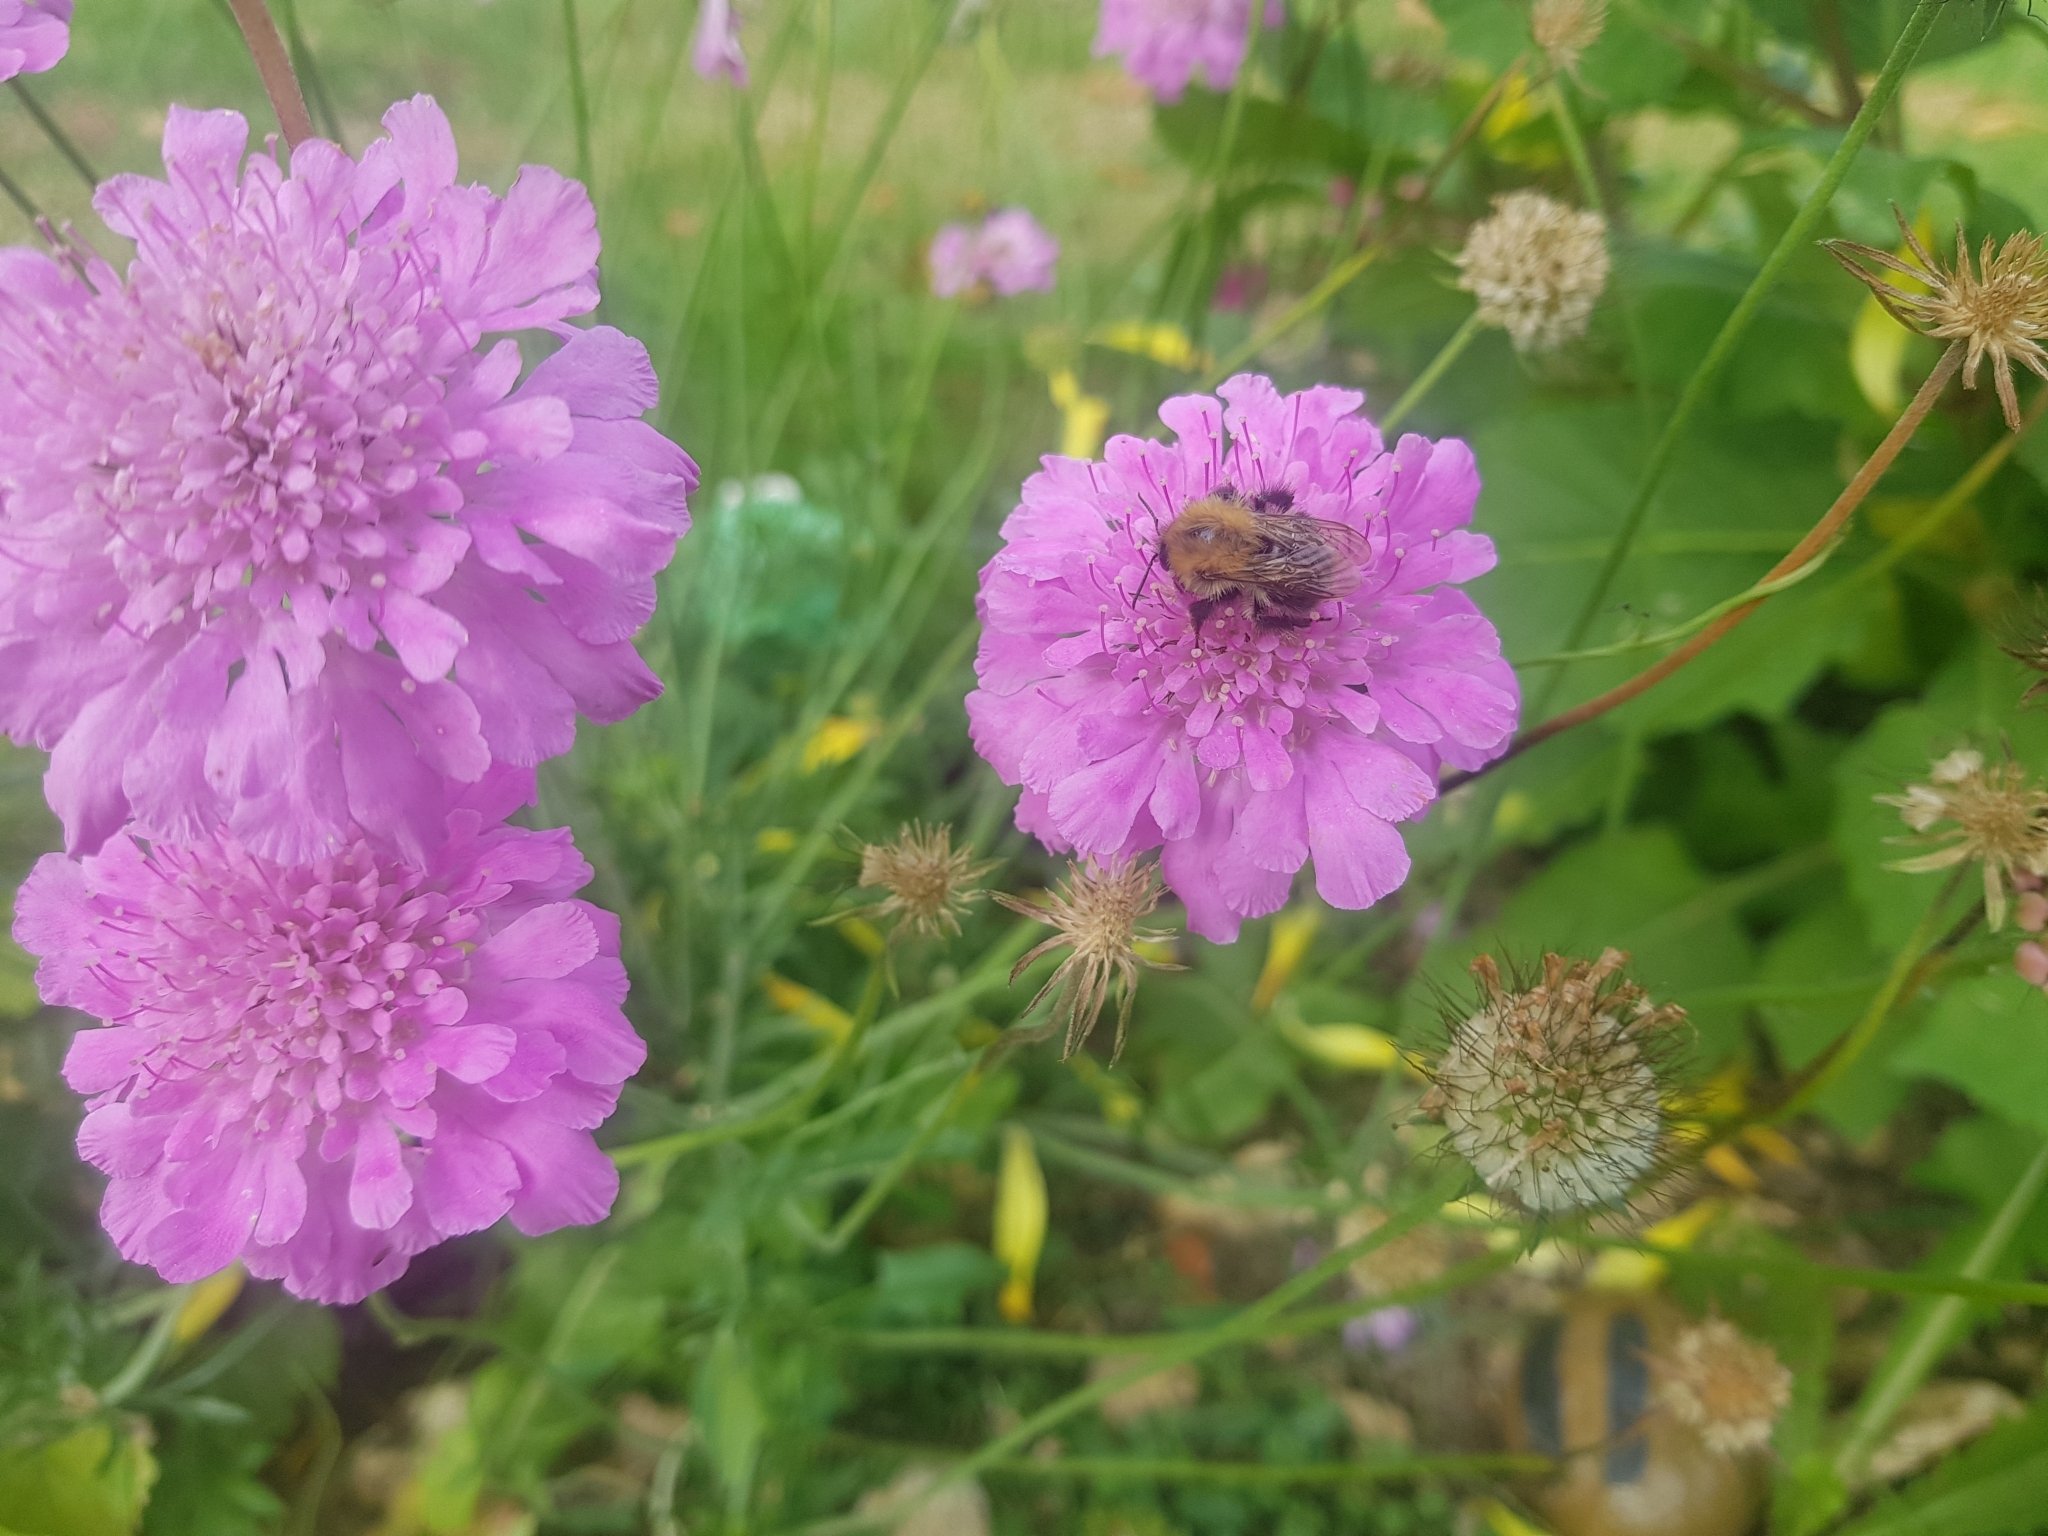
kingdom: Animalia
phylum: Arthropoda
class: Insecta
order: Hymenoptera
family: Apidae
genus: Bombus
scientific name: Bombus pascuorum
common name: Common carder bee
